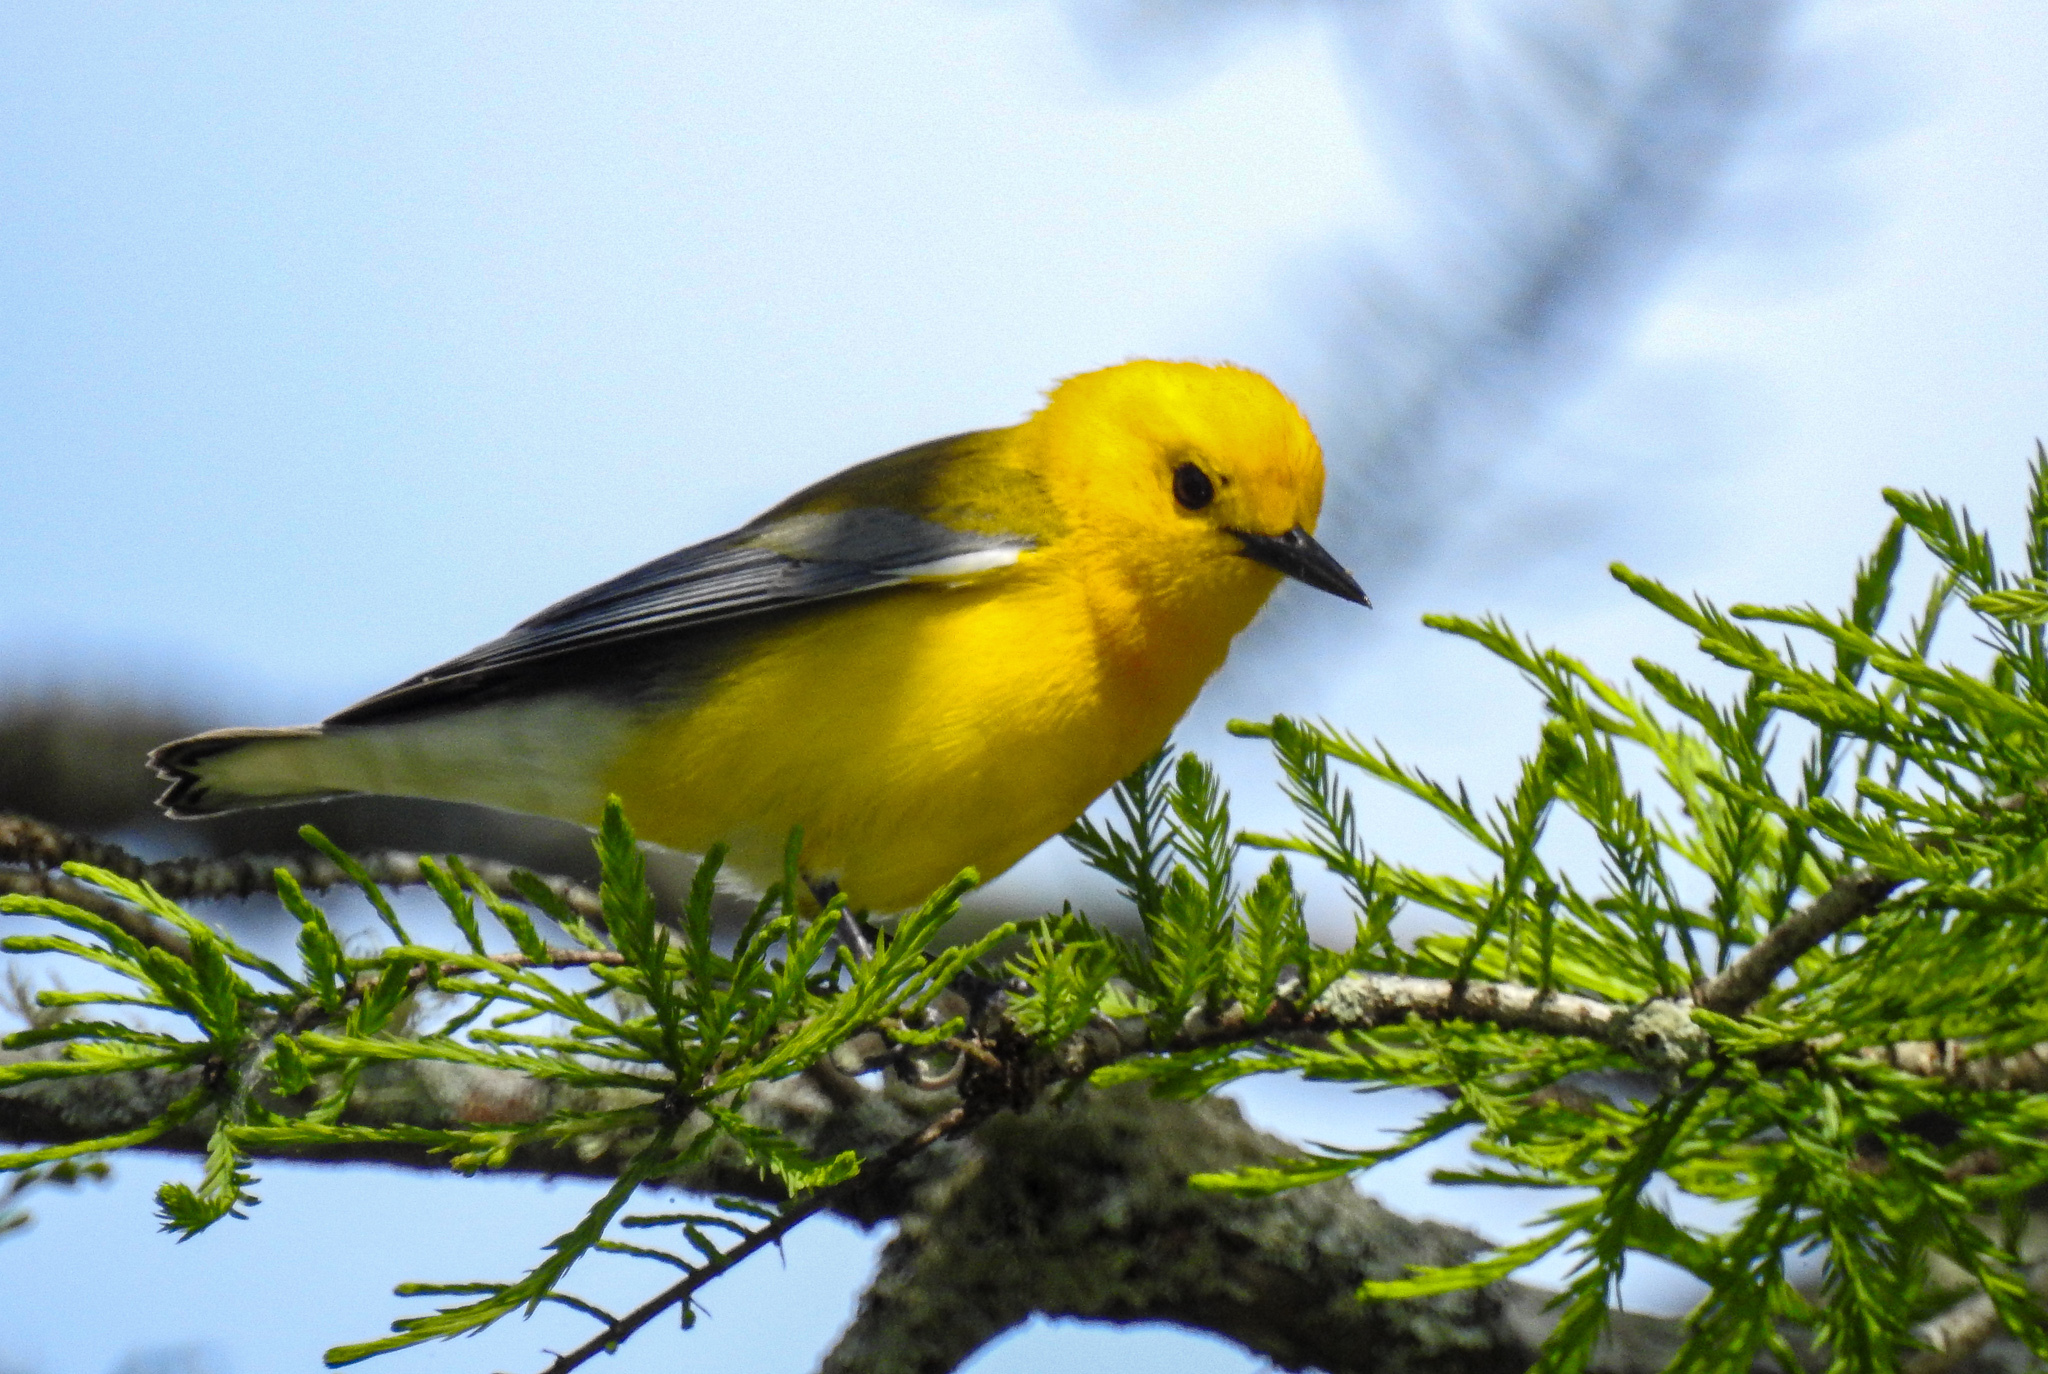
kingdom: Animalia
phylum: Chordata
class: Aves
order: Passeriformes
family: Parulidae
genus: Protonotaria
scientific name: Protonotaria citrea
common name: Prothonotary warbler
